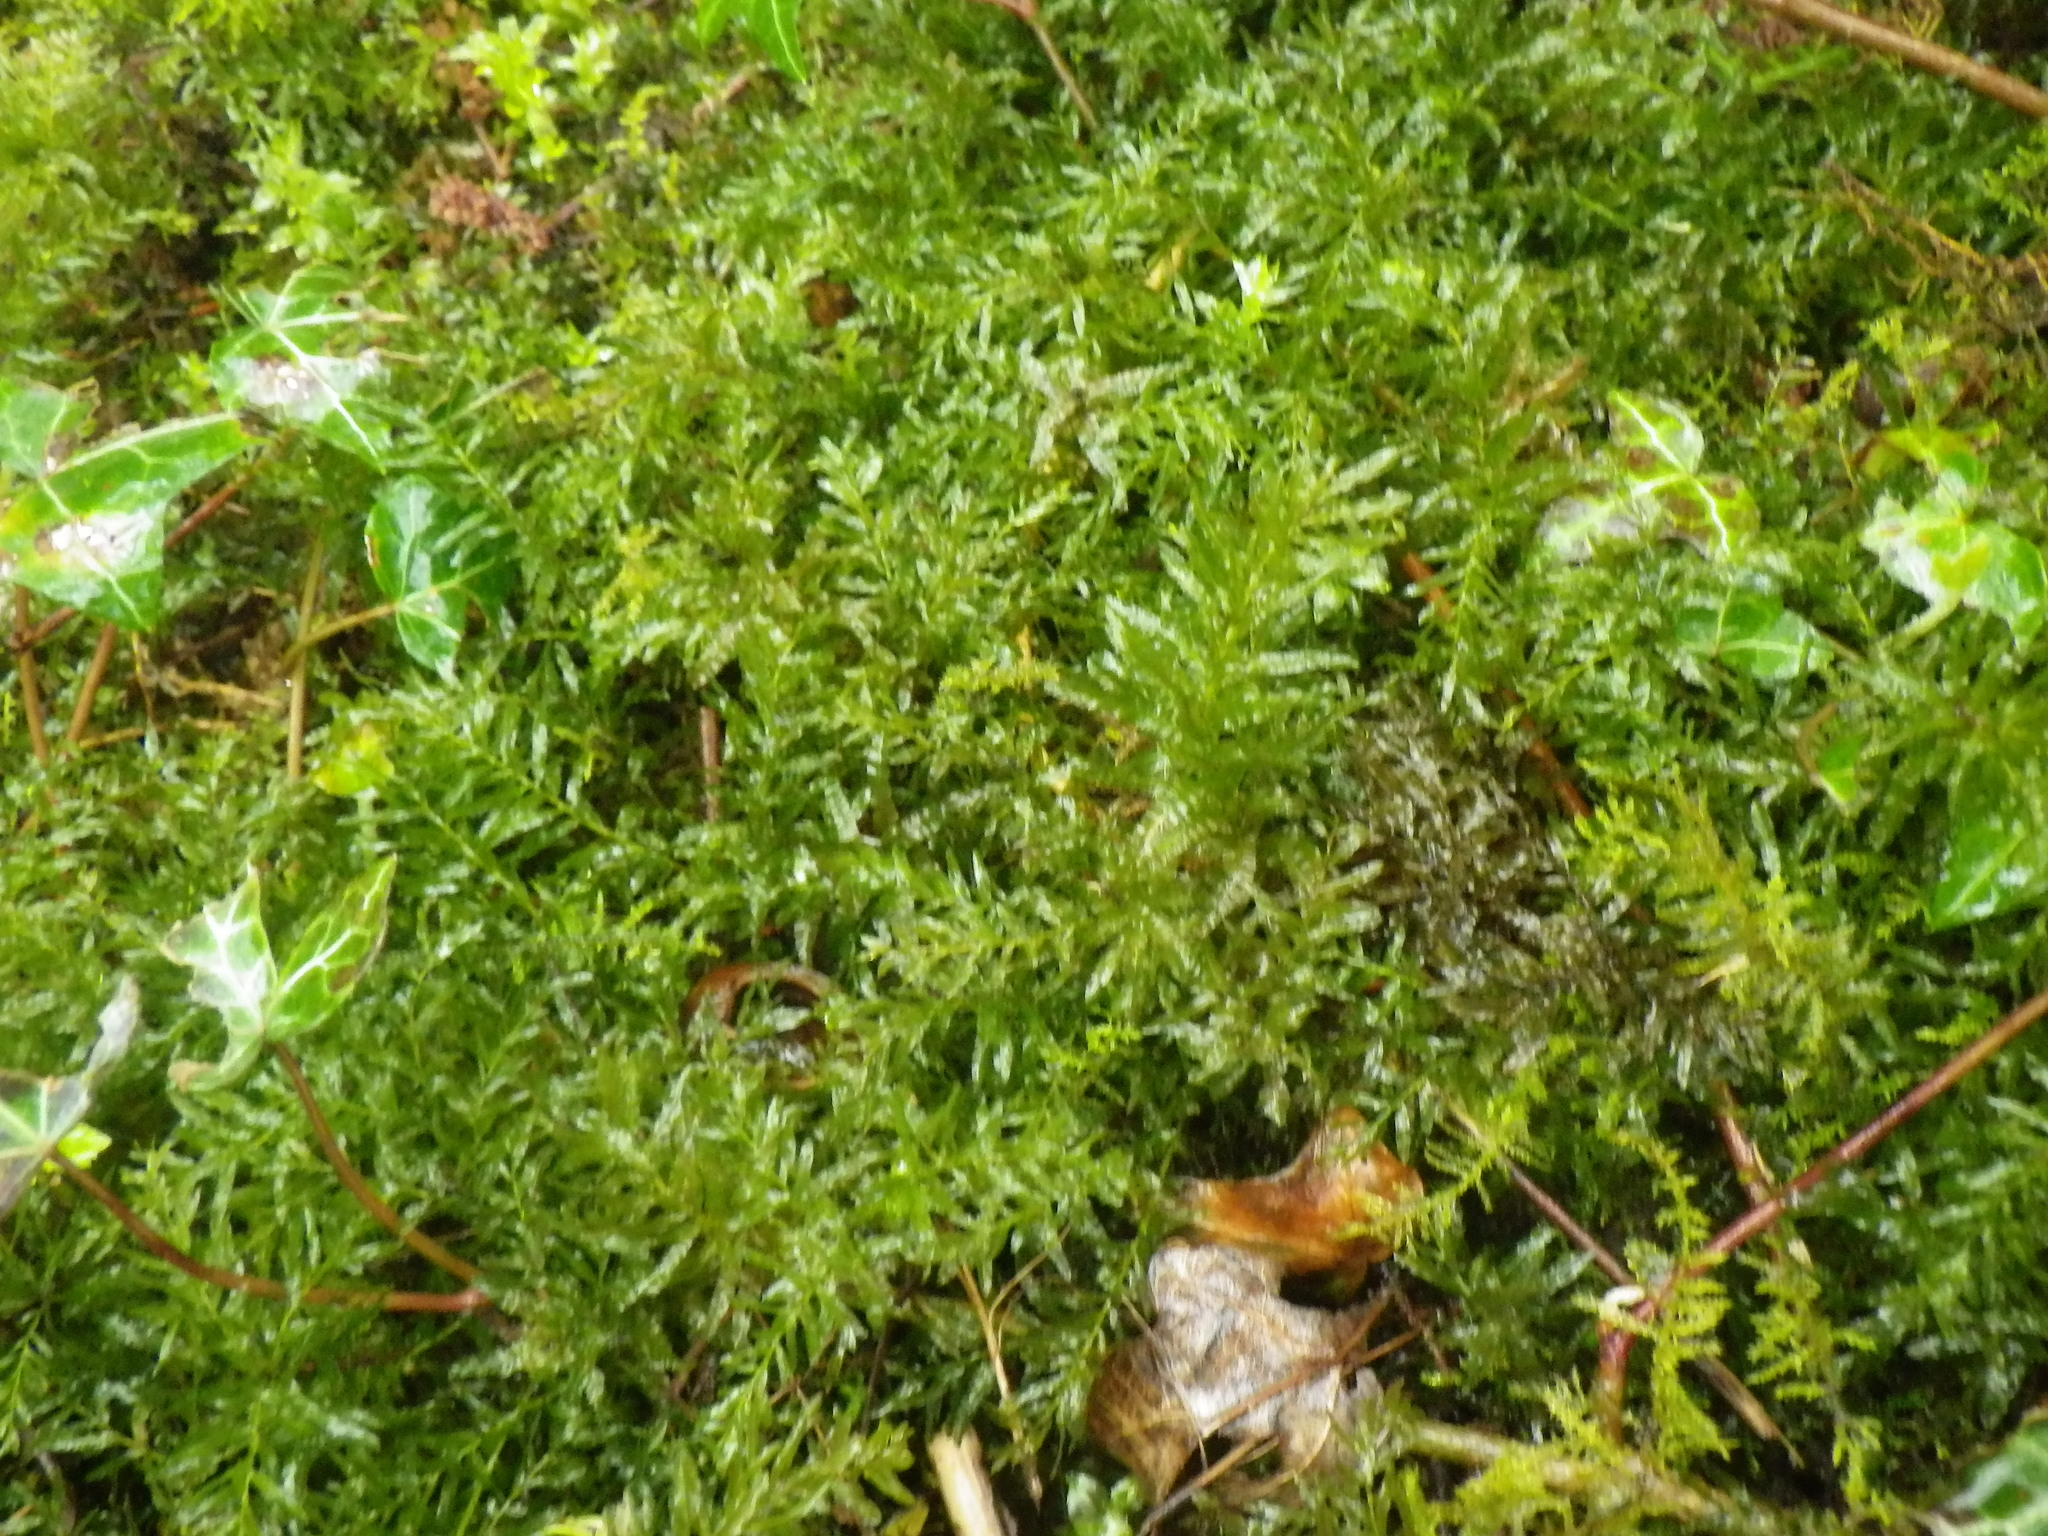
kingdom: Plantae
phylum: Bryophyta
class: Bryopsida
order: Bryales
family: Mniaceae
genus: Plagiomnium
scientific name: Plagiomnium undulatum
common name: Hart's-tongue thyme-moss
